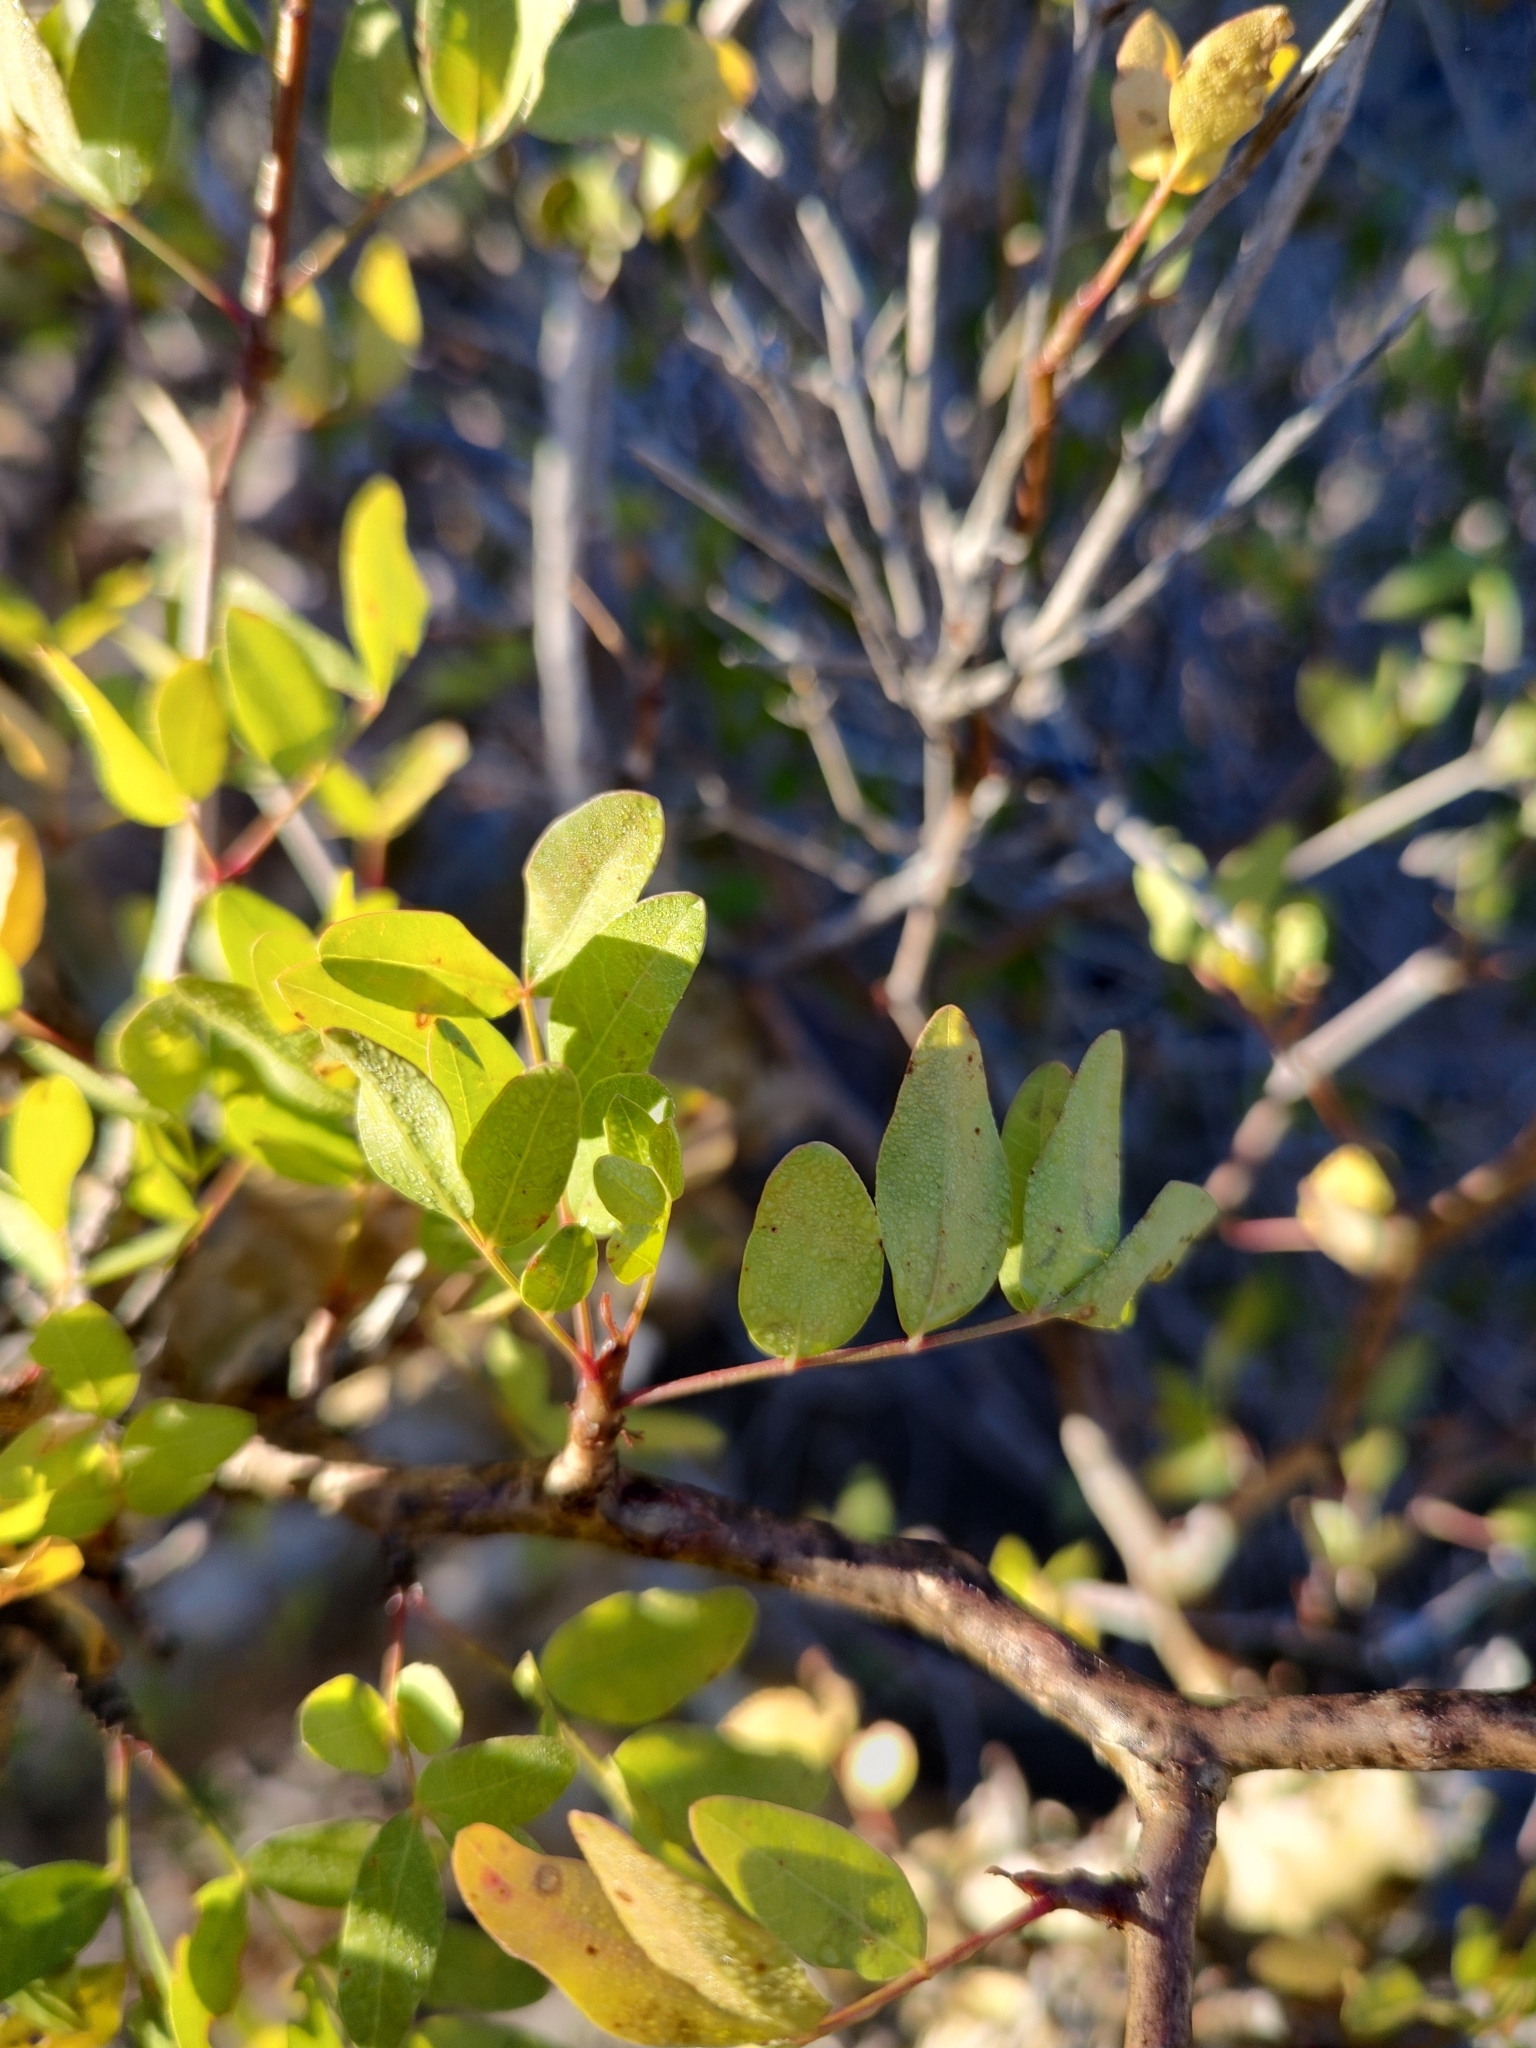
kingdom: Plantae
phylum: Tracheophyta
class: Magnoliopsida
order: Sapindales
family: Burseraceae
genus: Bursera
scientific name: Bursera fagaroides
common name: Elephant tree
